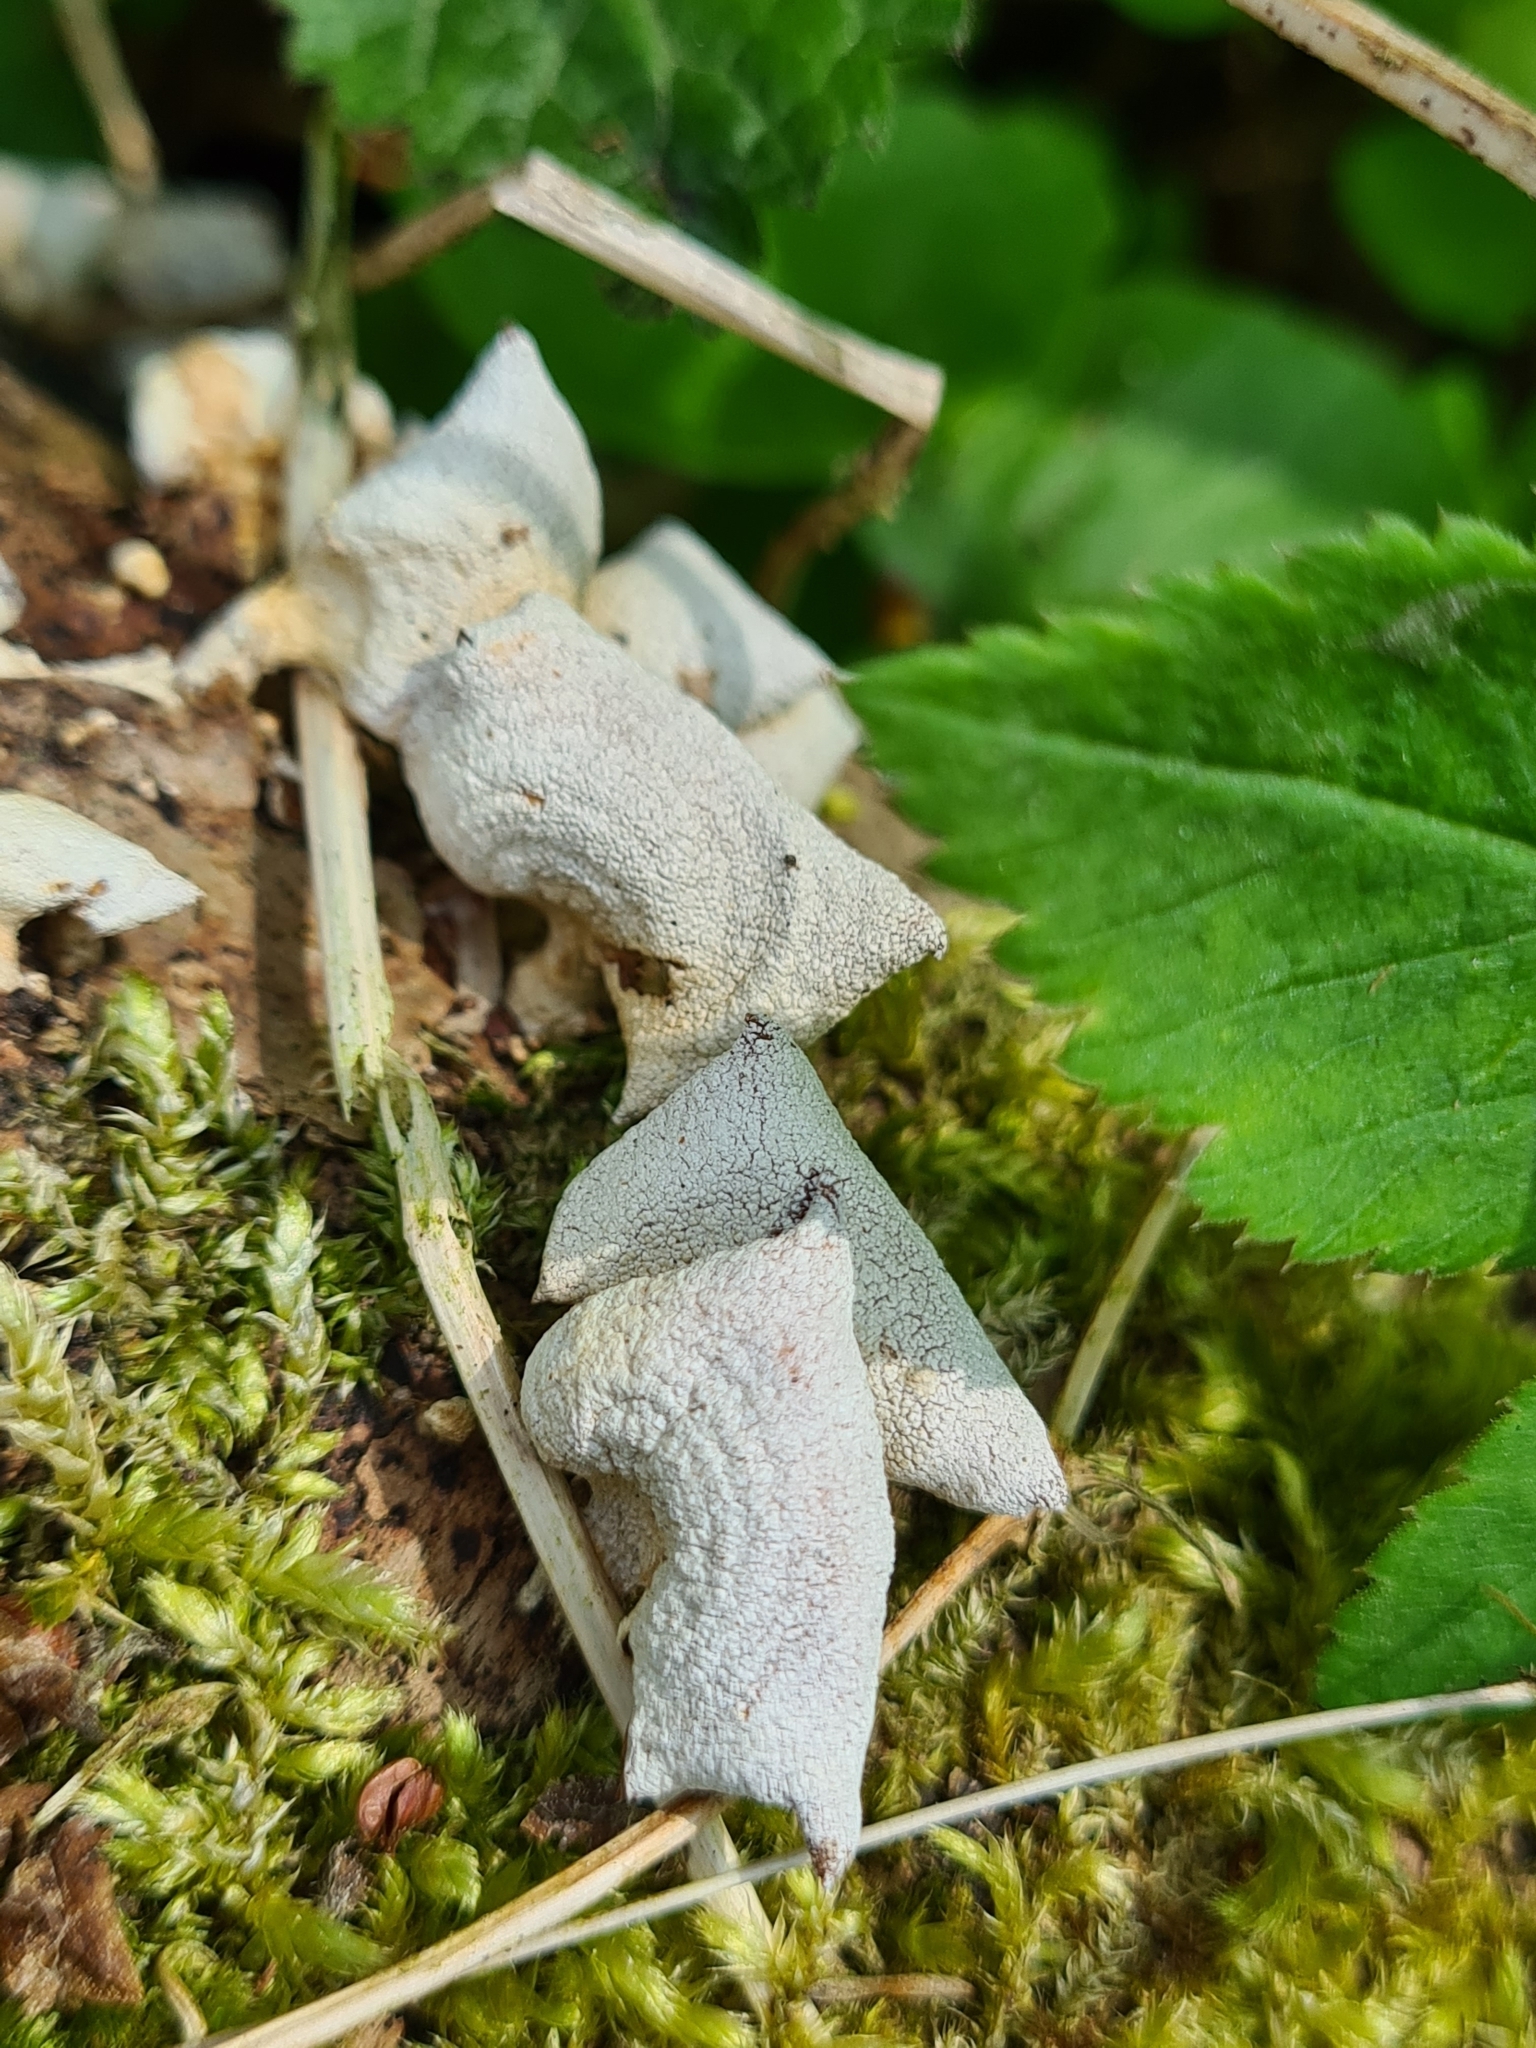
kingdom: Fungi
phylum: Basidiomycota
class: Agaricomycetes
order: Agaricales
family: Mycenaceae
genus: Panellus
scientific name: Panellus stipticus
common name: Bitter oysterling
